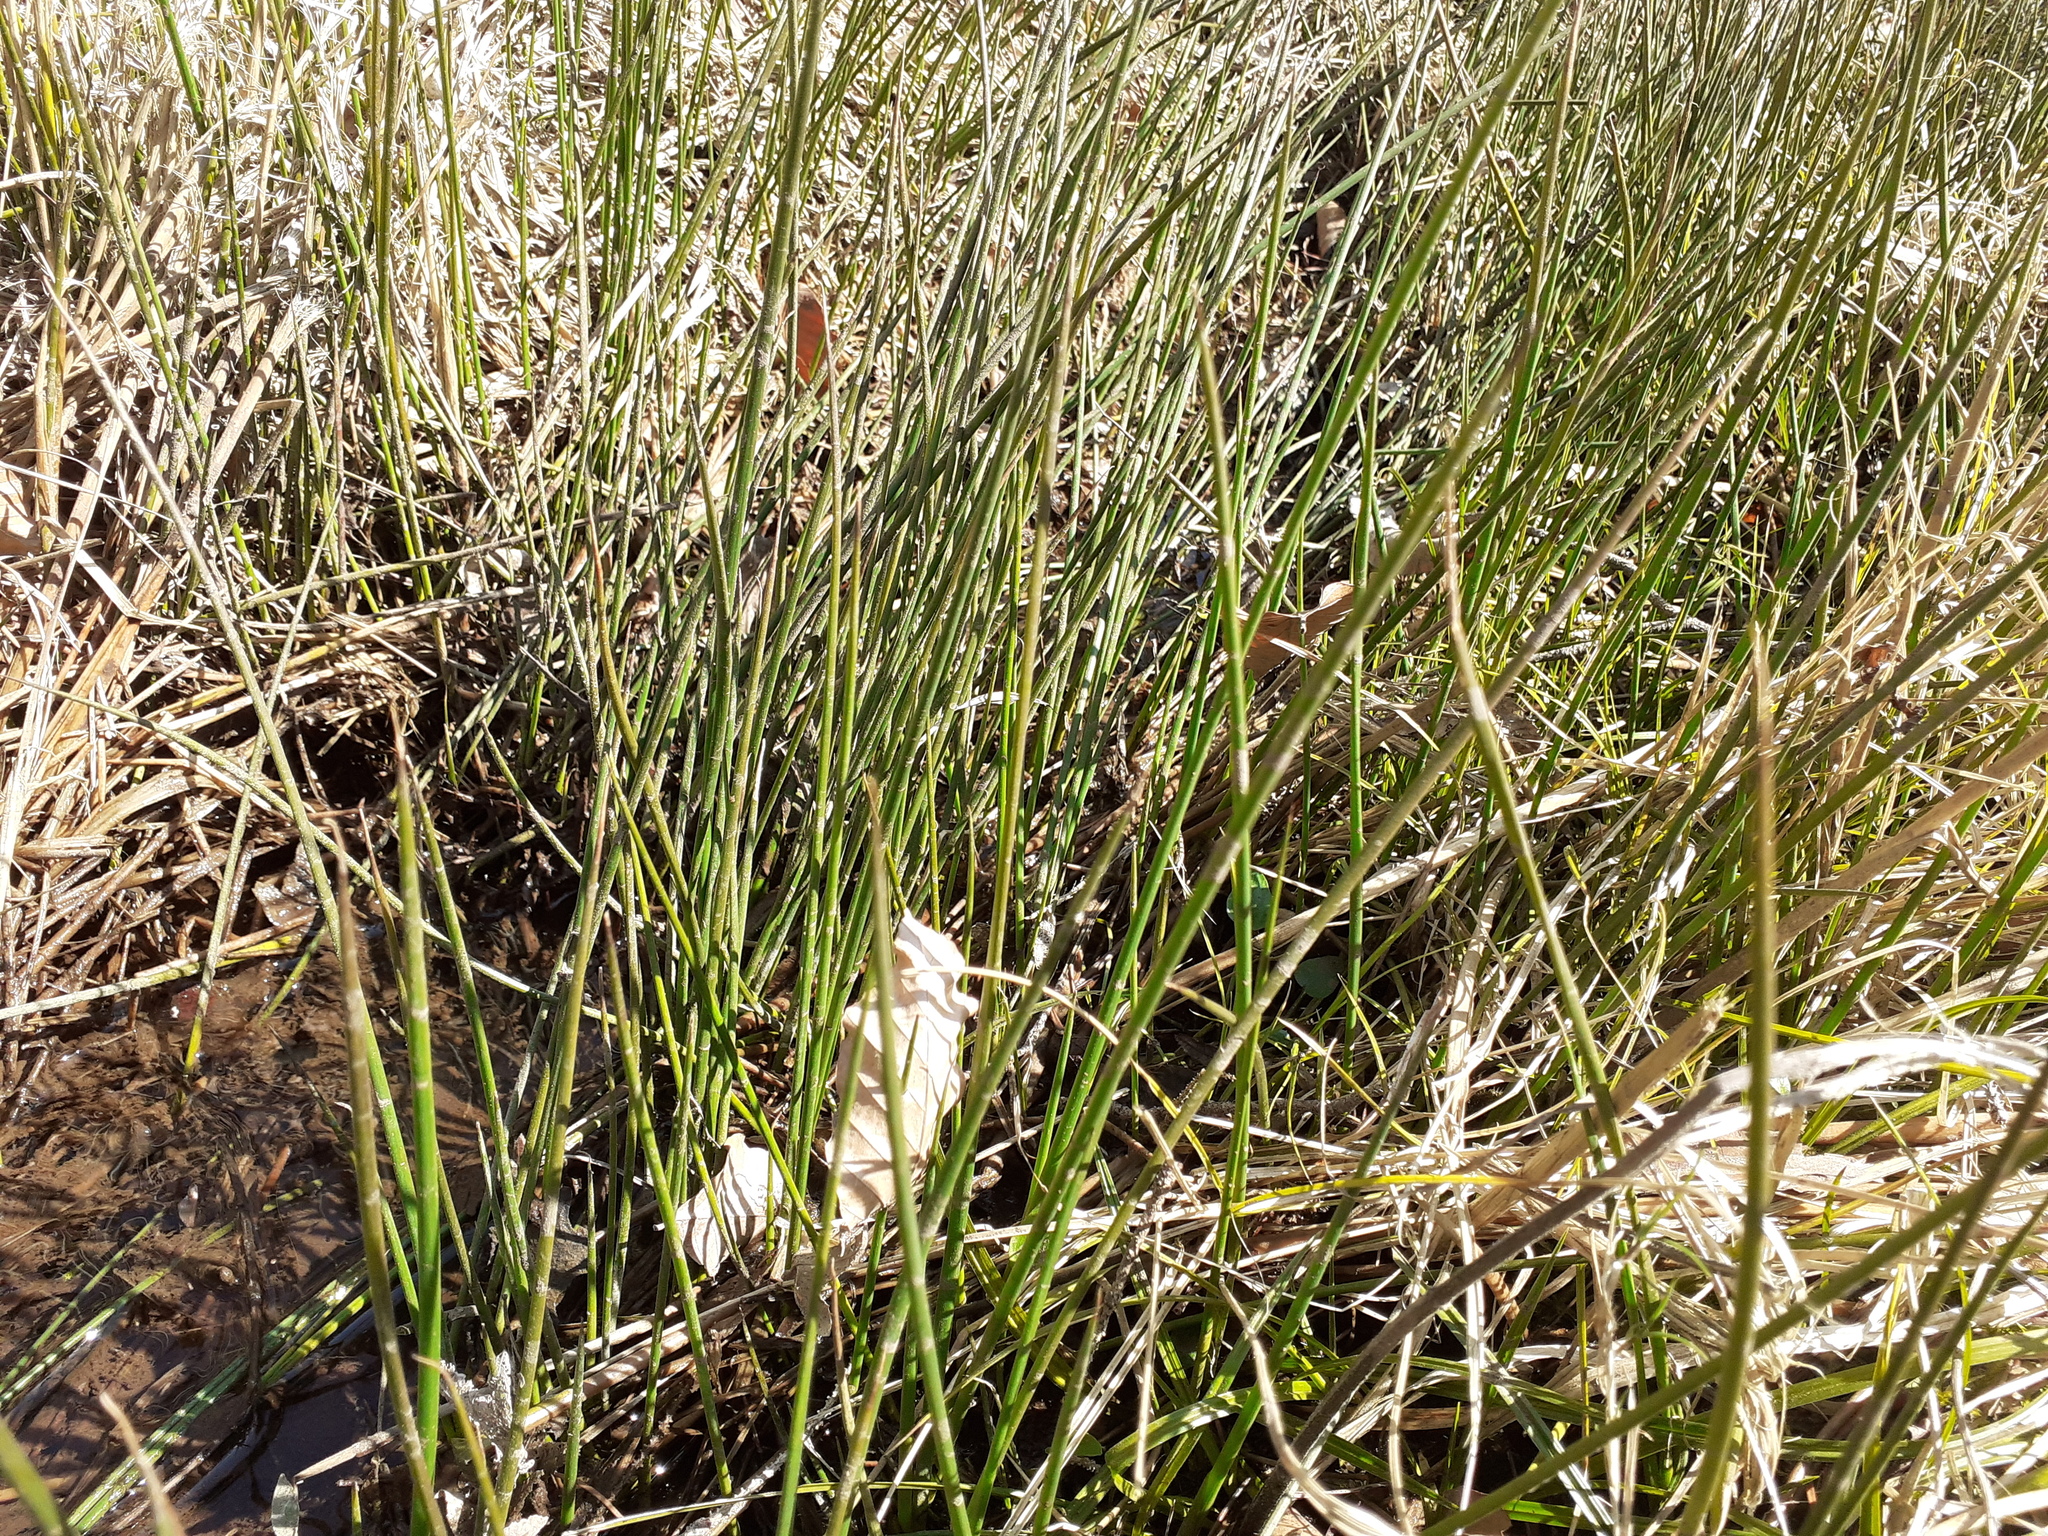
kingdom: Plantae
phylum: Tracheophyta
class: Liliopsida
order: Poales
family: Juncaceae
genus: Juncus
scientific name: Juncus articulatus
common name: Jointed rush
